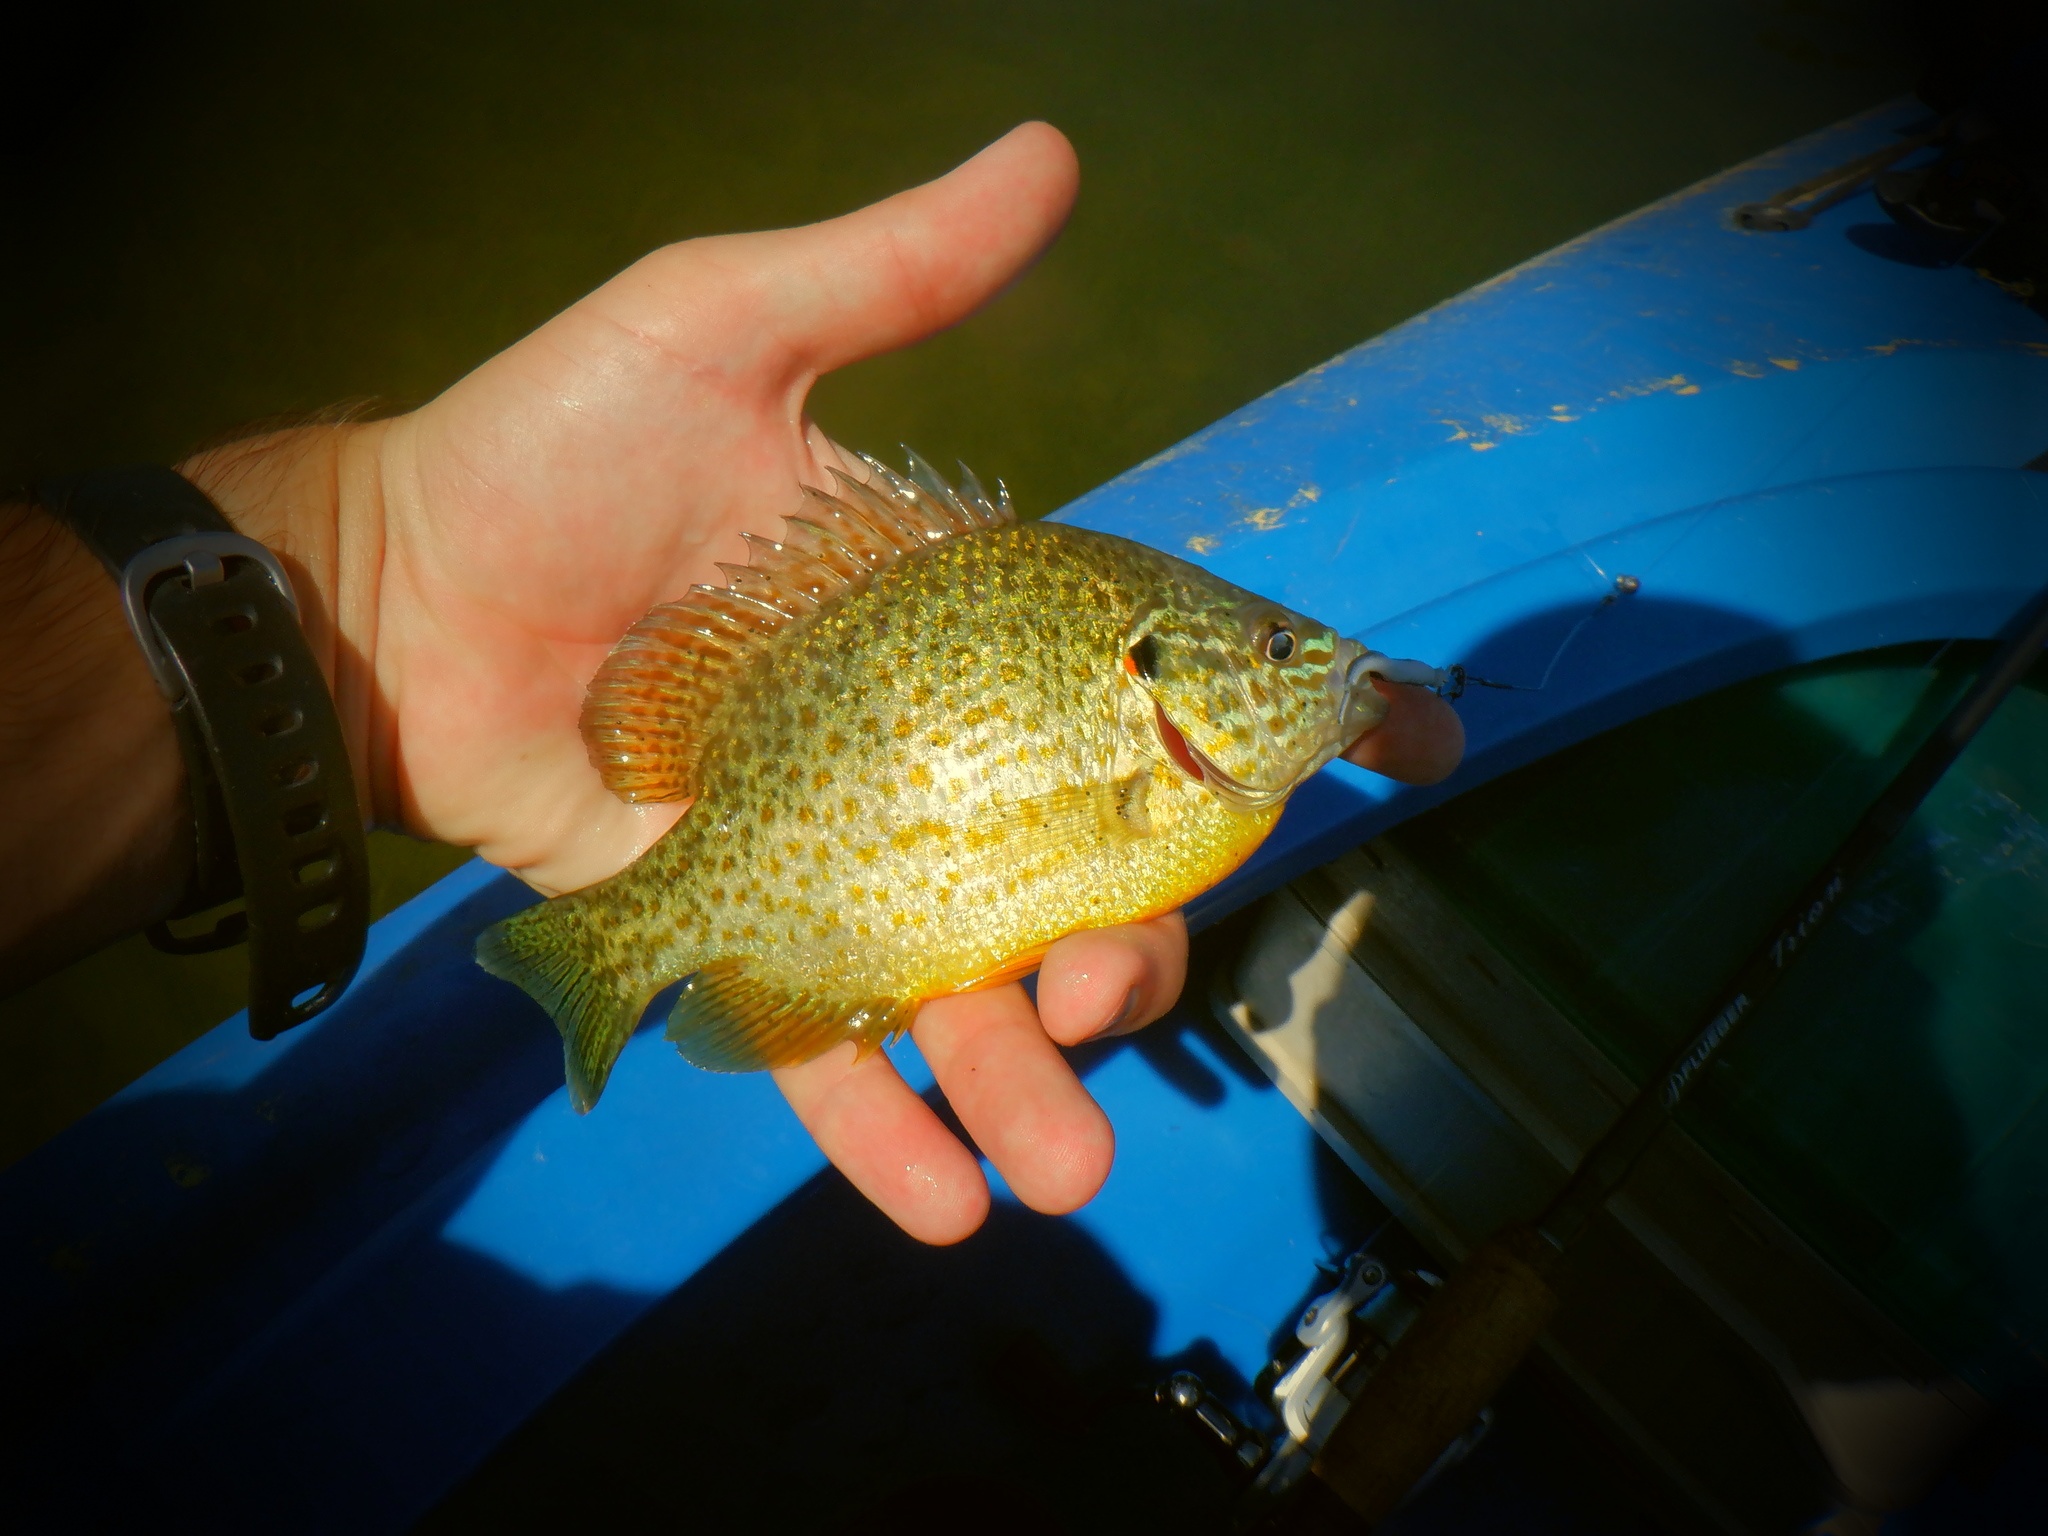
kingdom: Animalia
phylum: Chordata
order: Perciformes
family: Centrarchidae
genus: Lepomis
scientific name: Lepomis gibbosus
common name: Pumpkinseed
